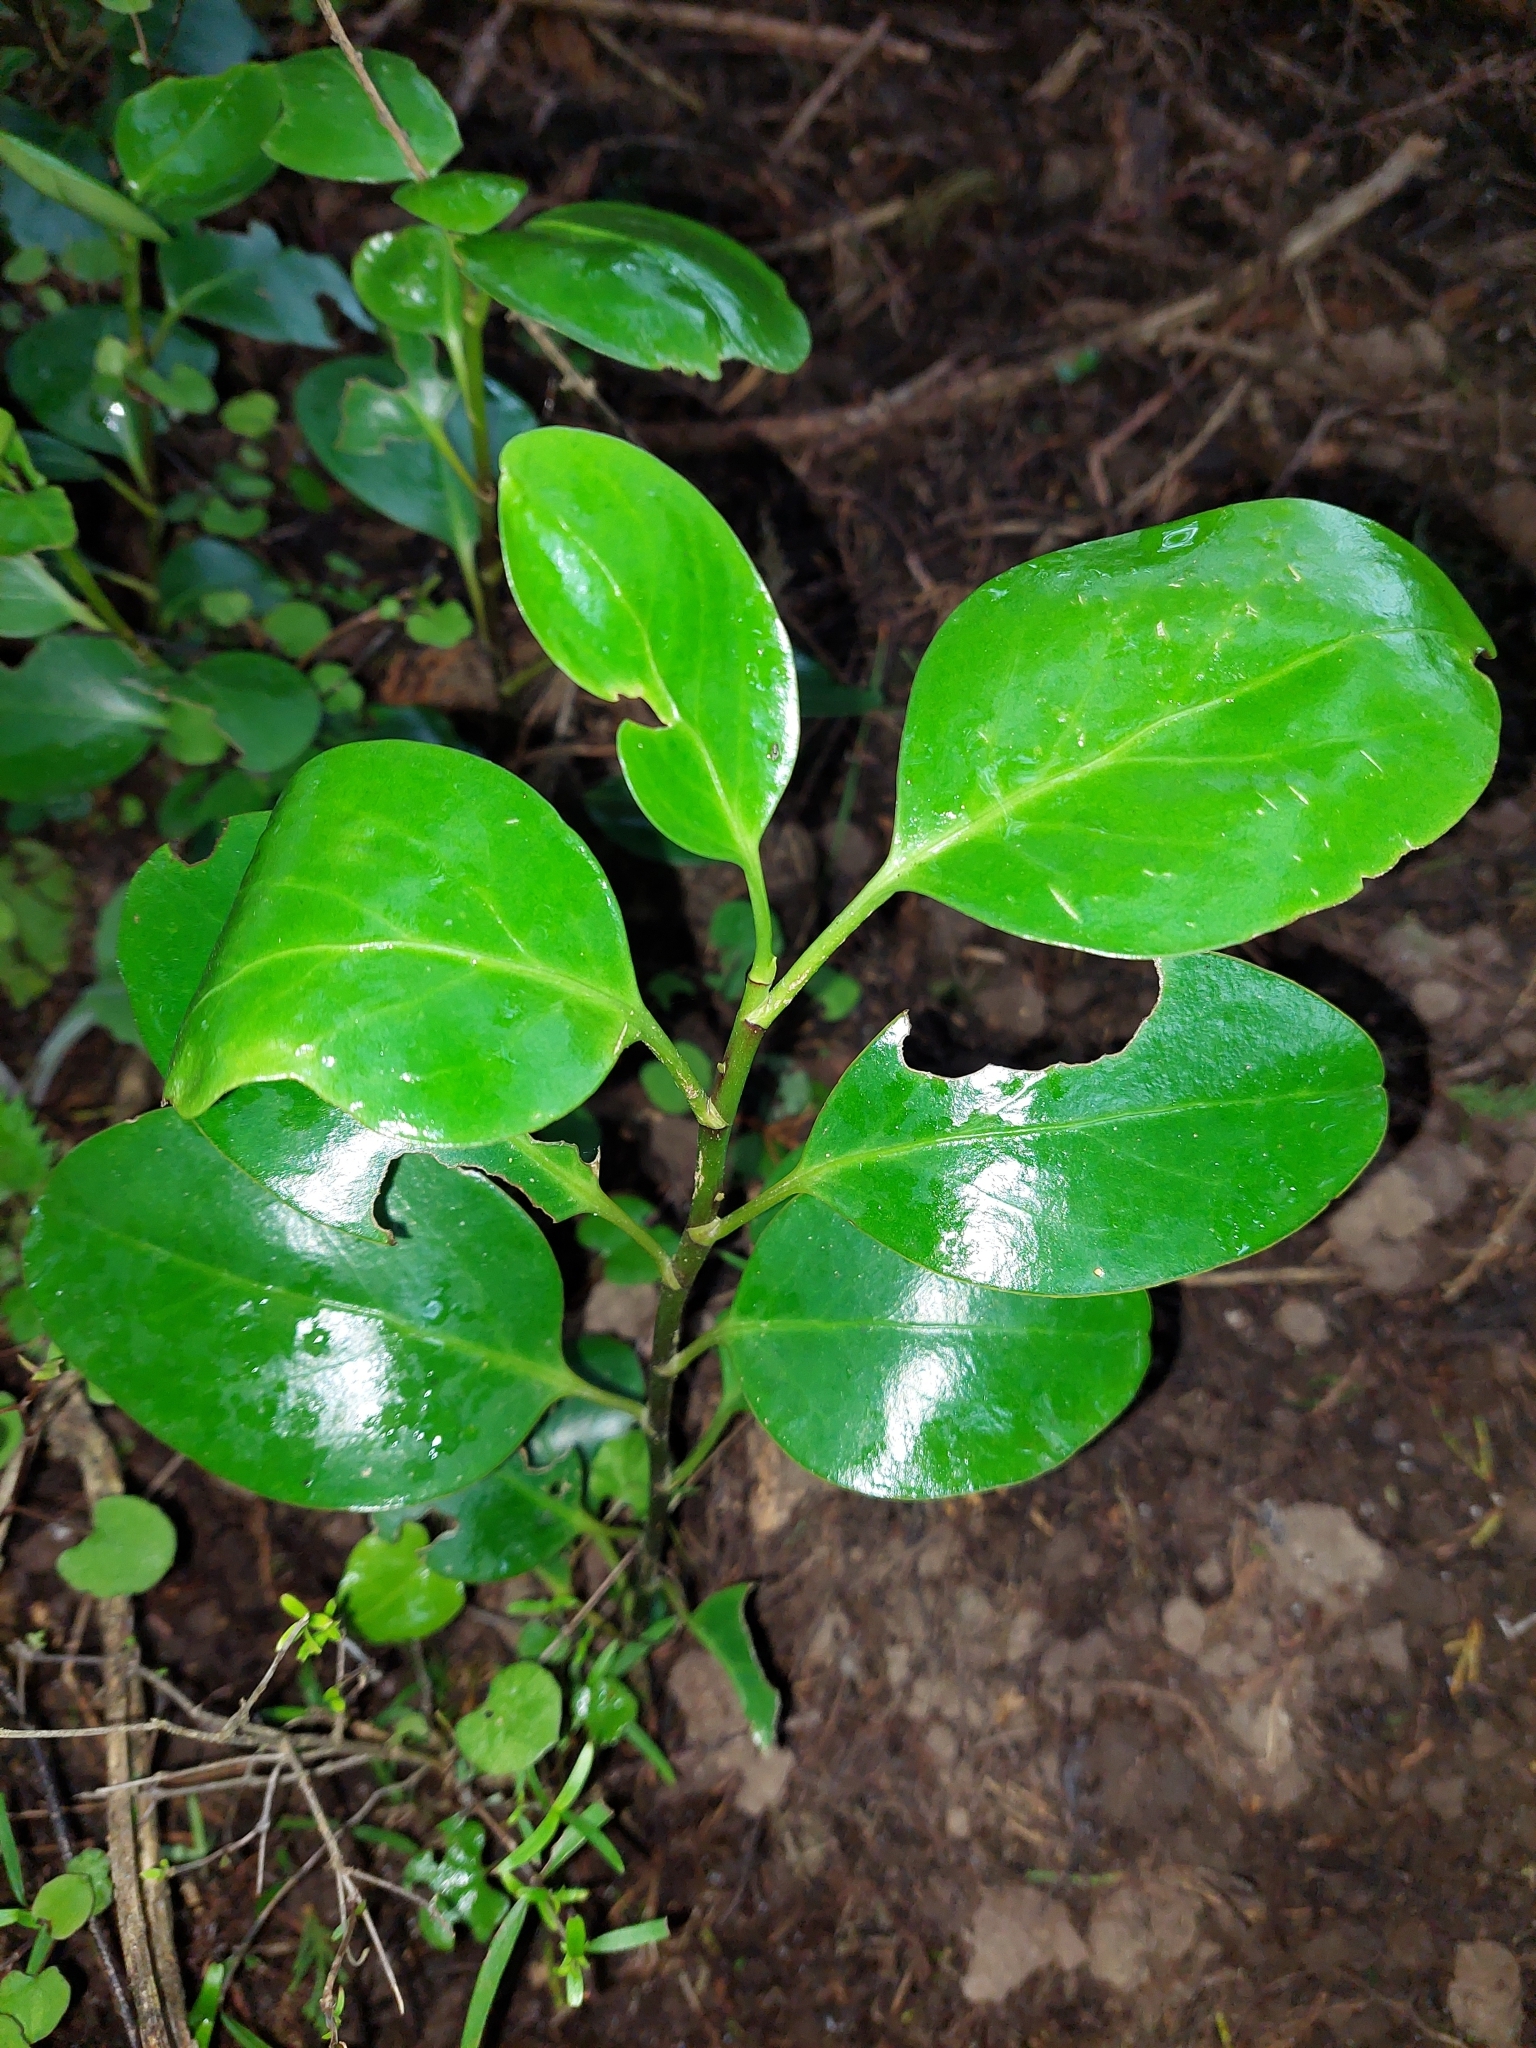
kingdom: Plantae
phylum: Tracheophyta
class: Magnoliopsida
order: Apiales
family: Griseliniaceae
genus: Griselinia
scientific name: Griselinia littoralis
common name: New zealand broadleaf
